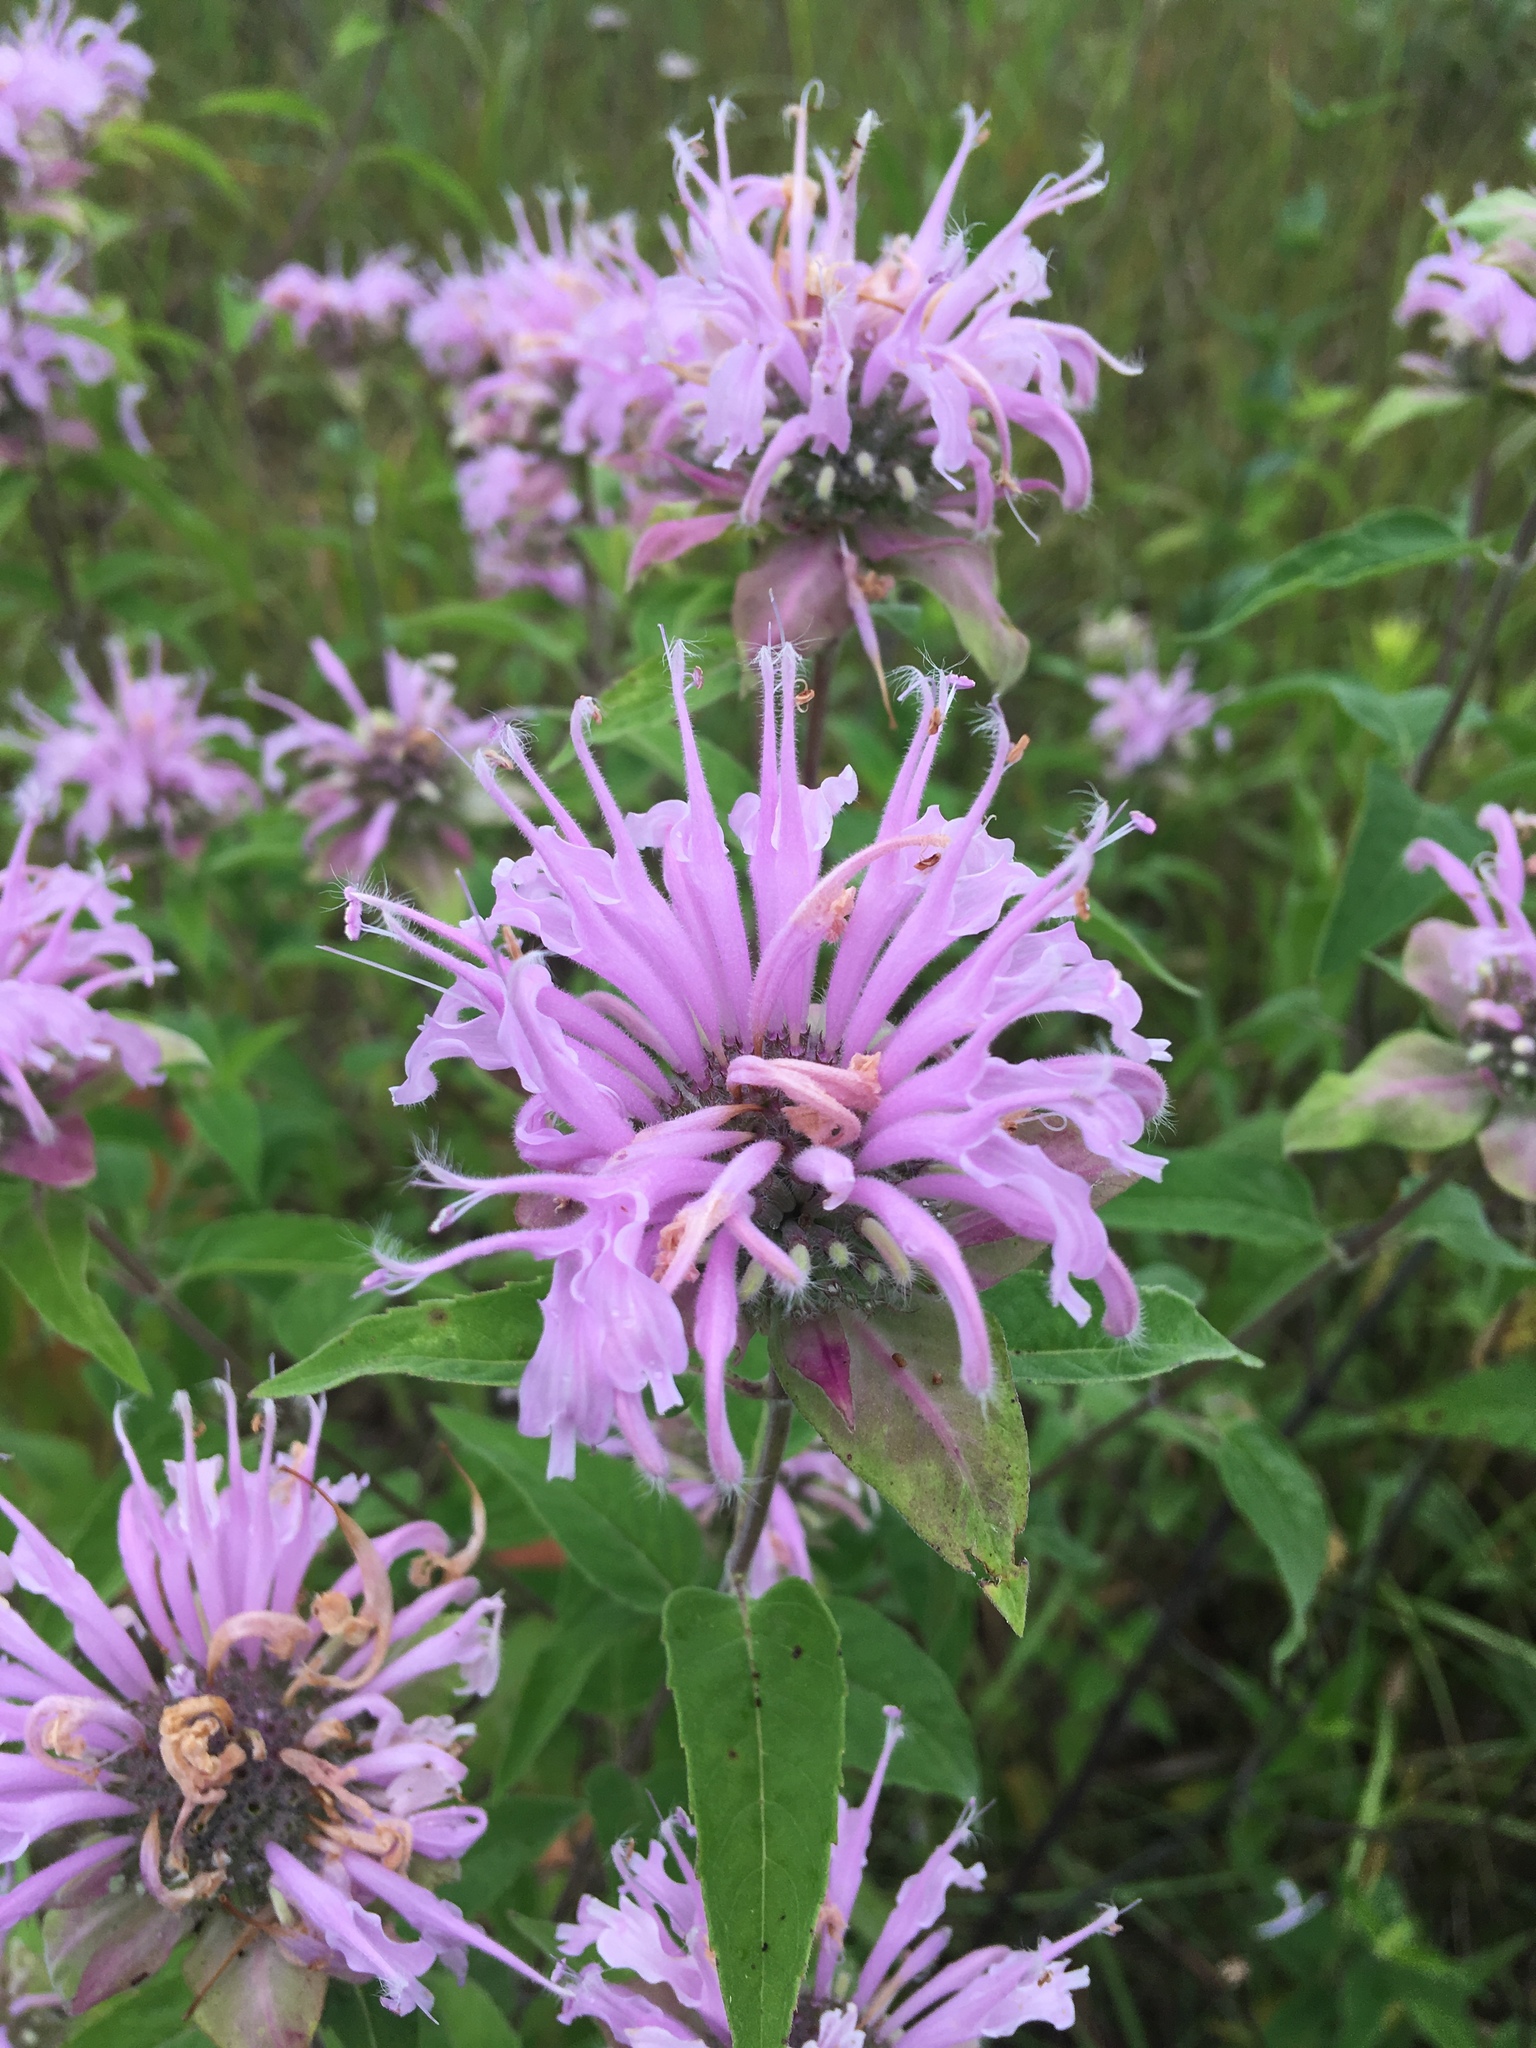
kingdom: Plantae
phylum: Tracheophyta
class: Magnoliopsida
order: Lamiales
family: Lamiaceae
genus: Monarda
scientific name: Monarda fistulosa
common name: Purple beebalm
